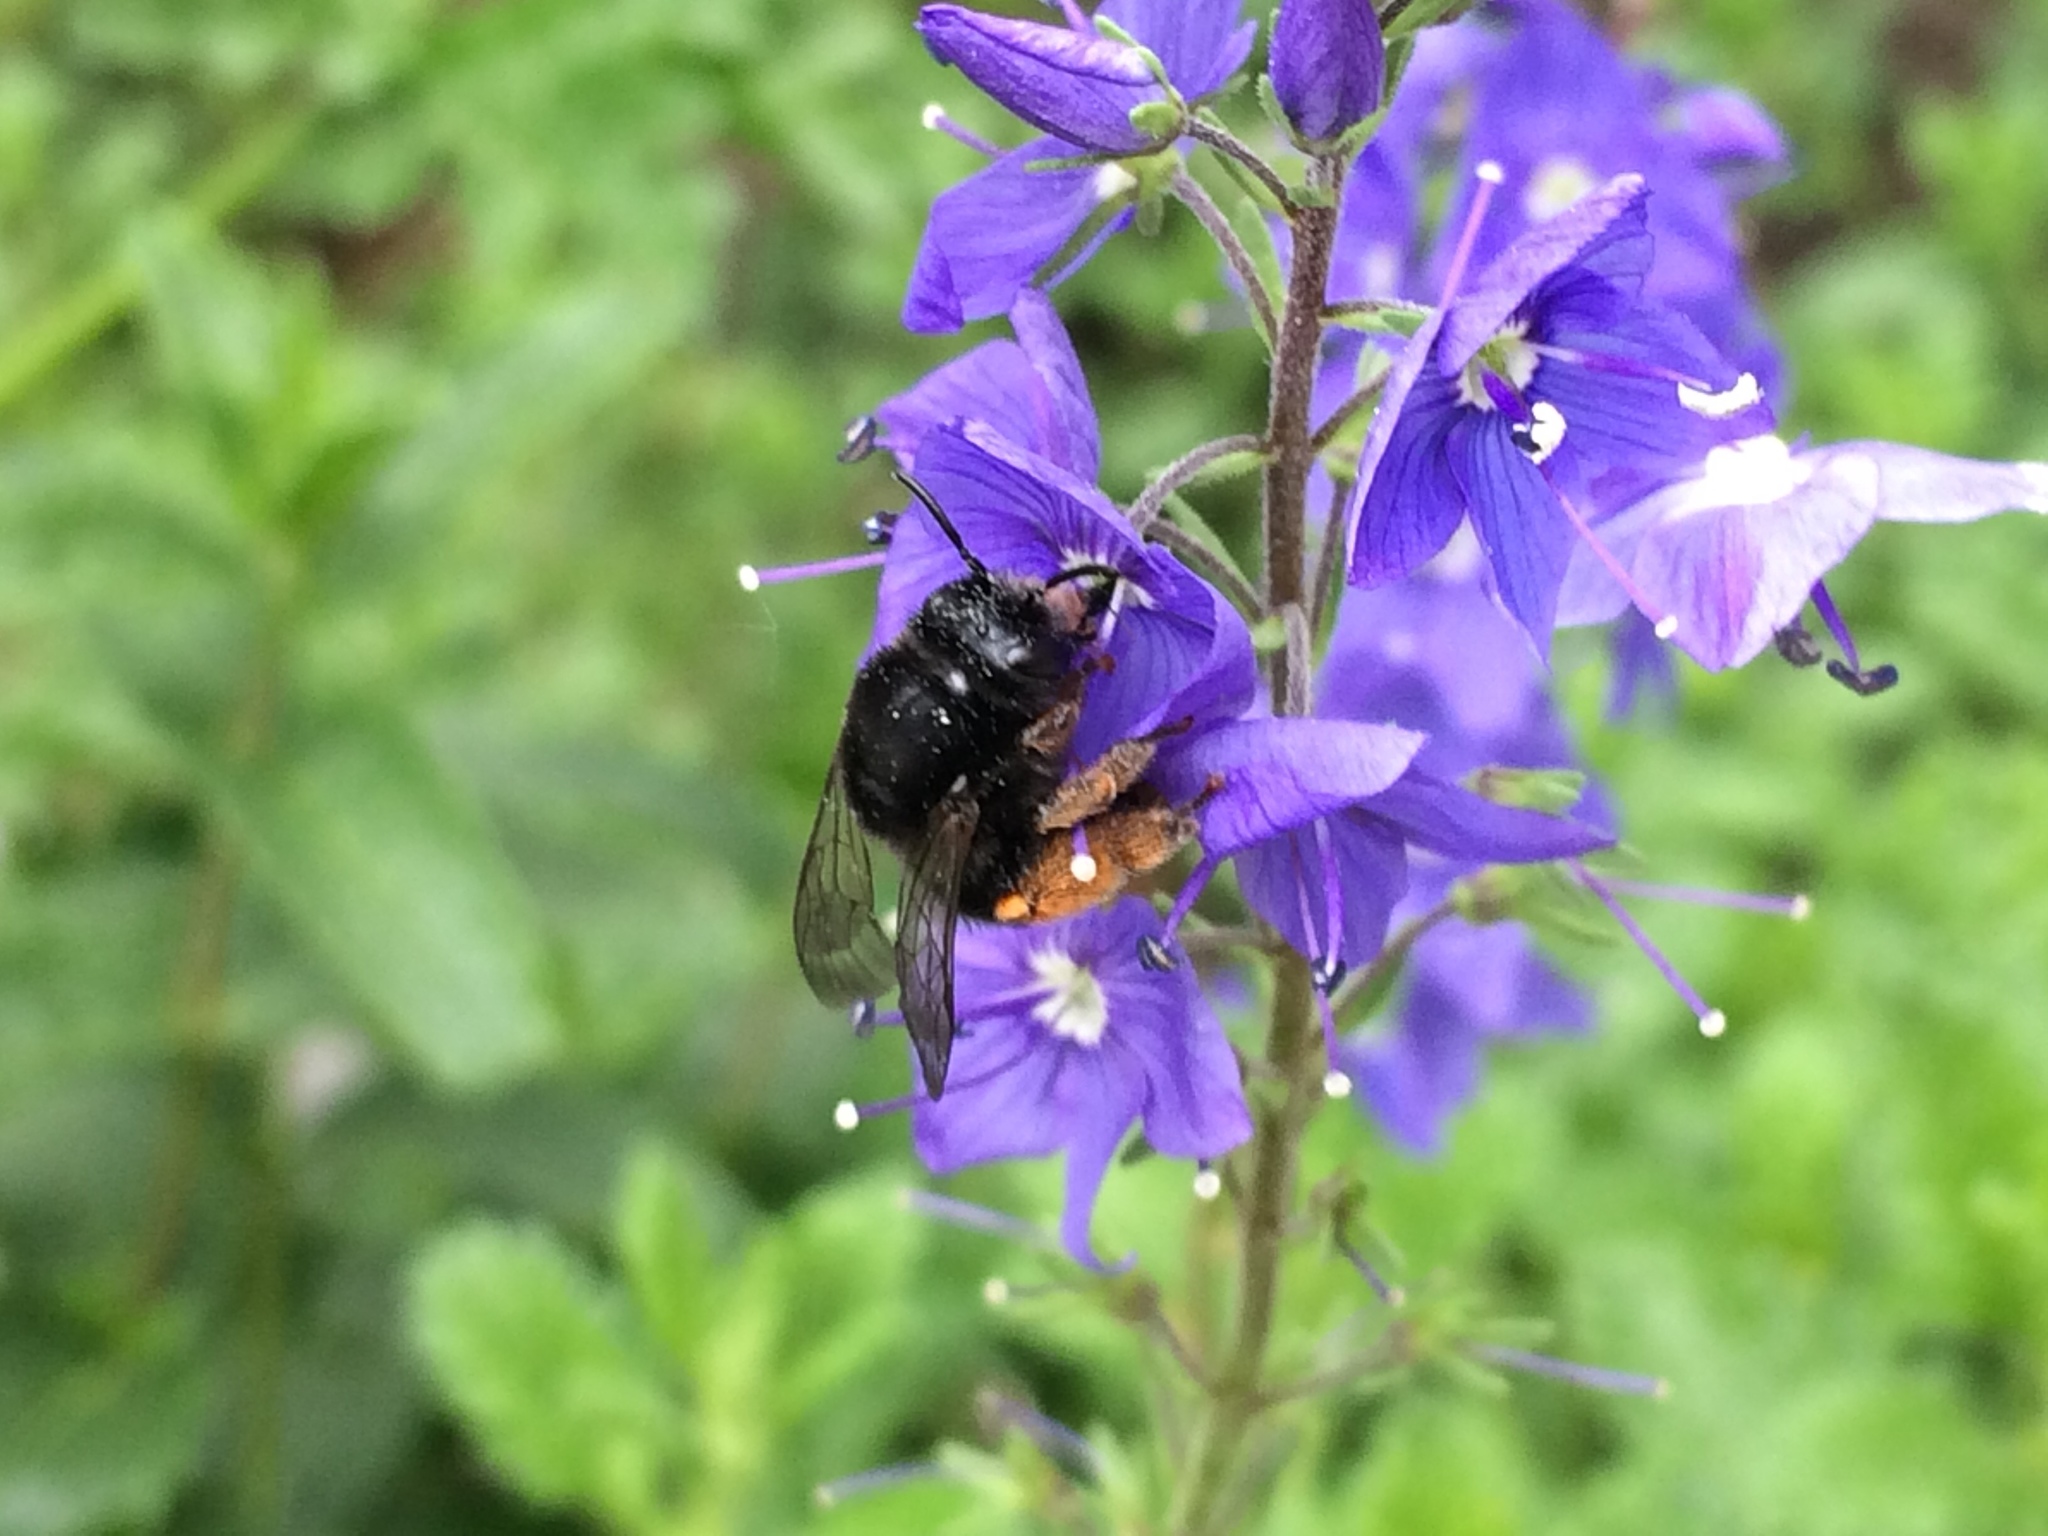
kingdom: Animalia
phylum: Arthropoda
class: Insecta
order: Hymenoptera
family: Melittidae
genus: Melitta
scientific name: Melitta haemorrhoidalis
